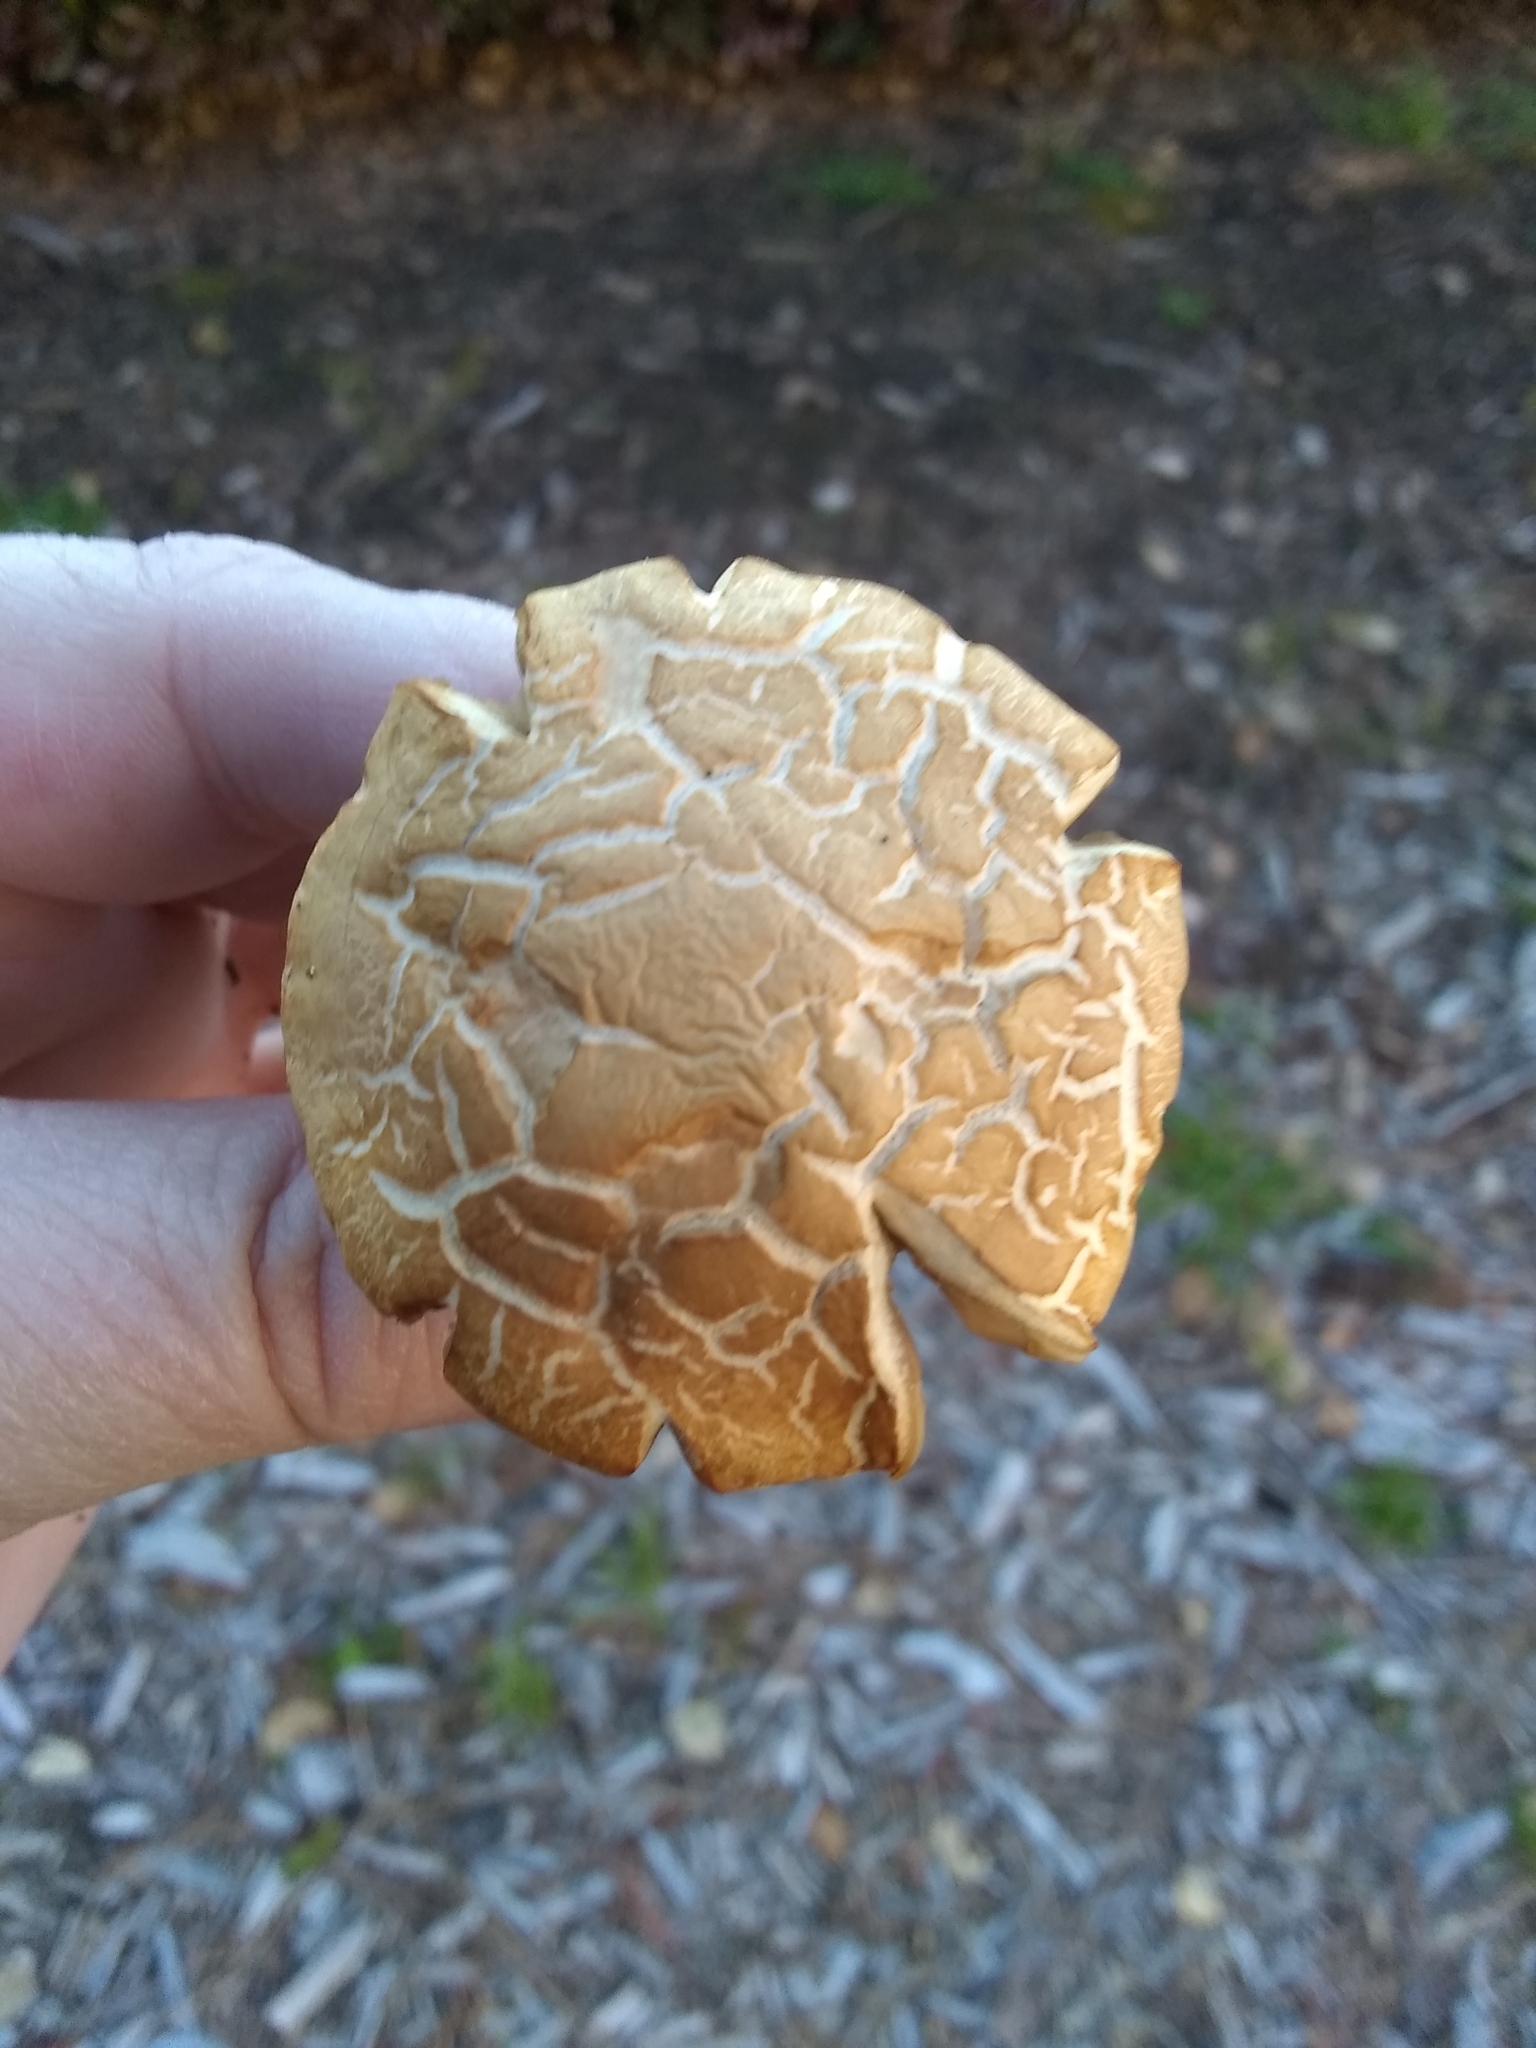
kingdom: Fungi
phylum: Basidiomycota
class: Agaricomycetes
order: Agaricales
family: Strophariaceae
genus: Agrocybe
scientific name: Agrocybe putaminum
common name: Mulch fieldcap
